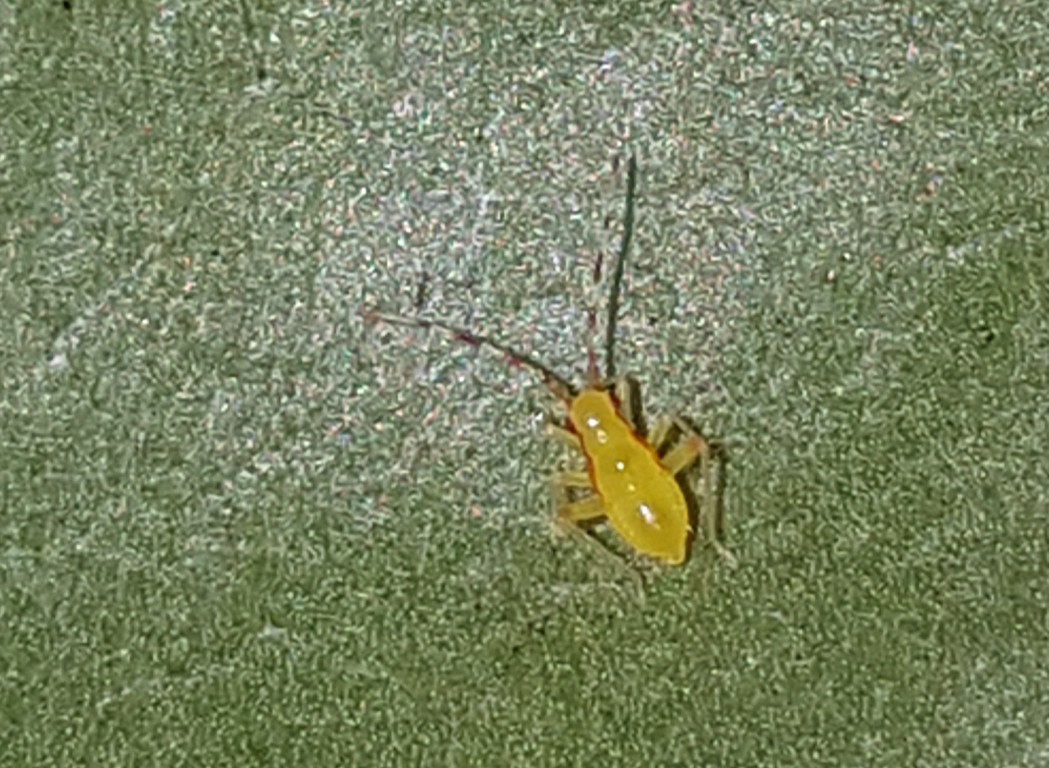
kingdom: Animalia
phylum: Arthropoda
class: Insecta
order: Hemiptera
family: Miridae
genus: Campyloneura
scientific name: Campyloneura virgula
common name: Predatory bug
